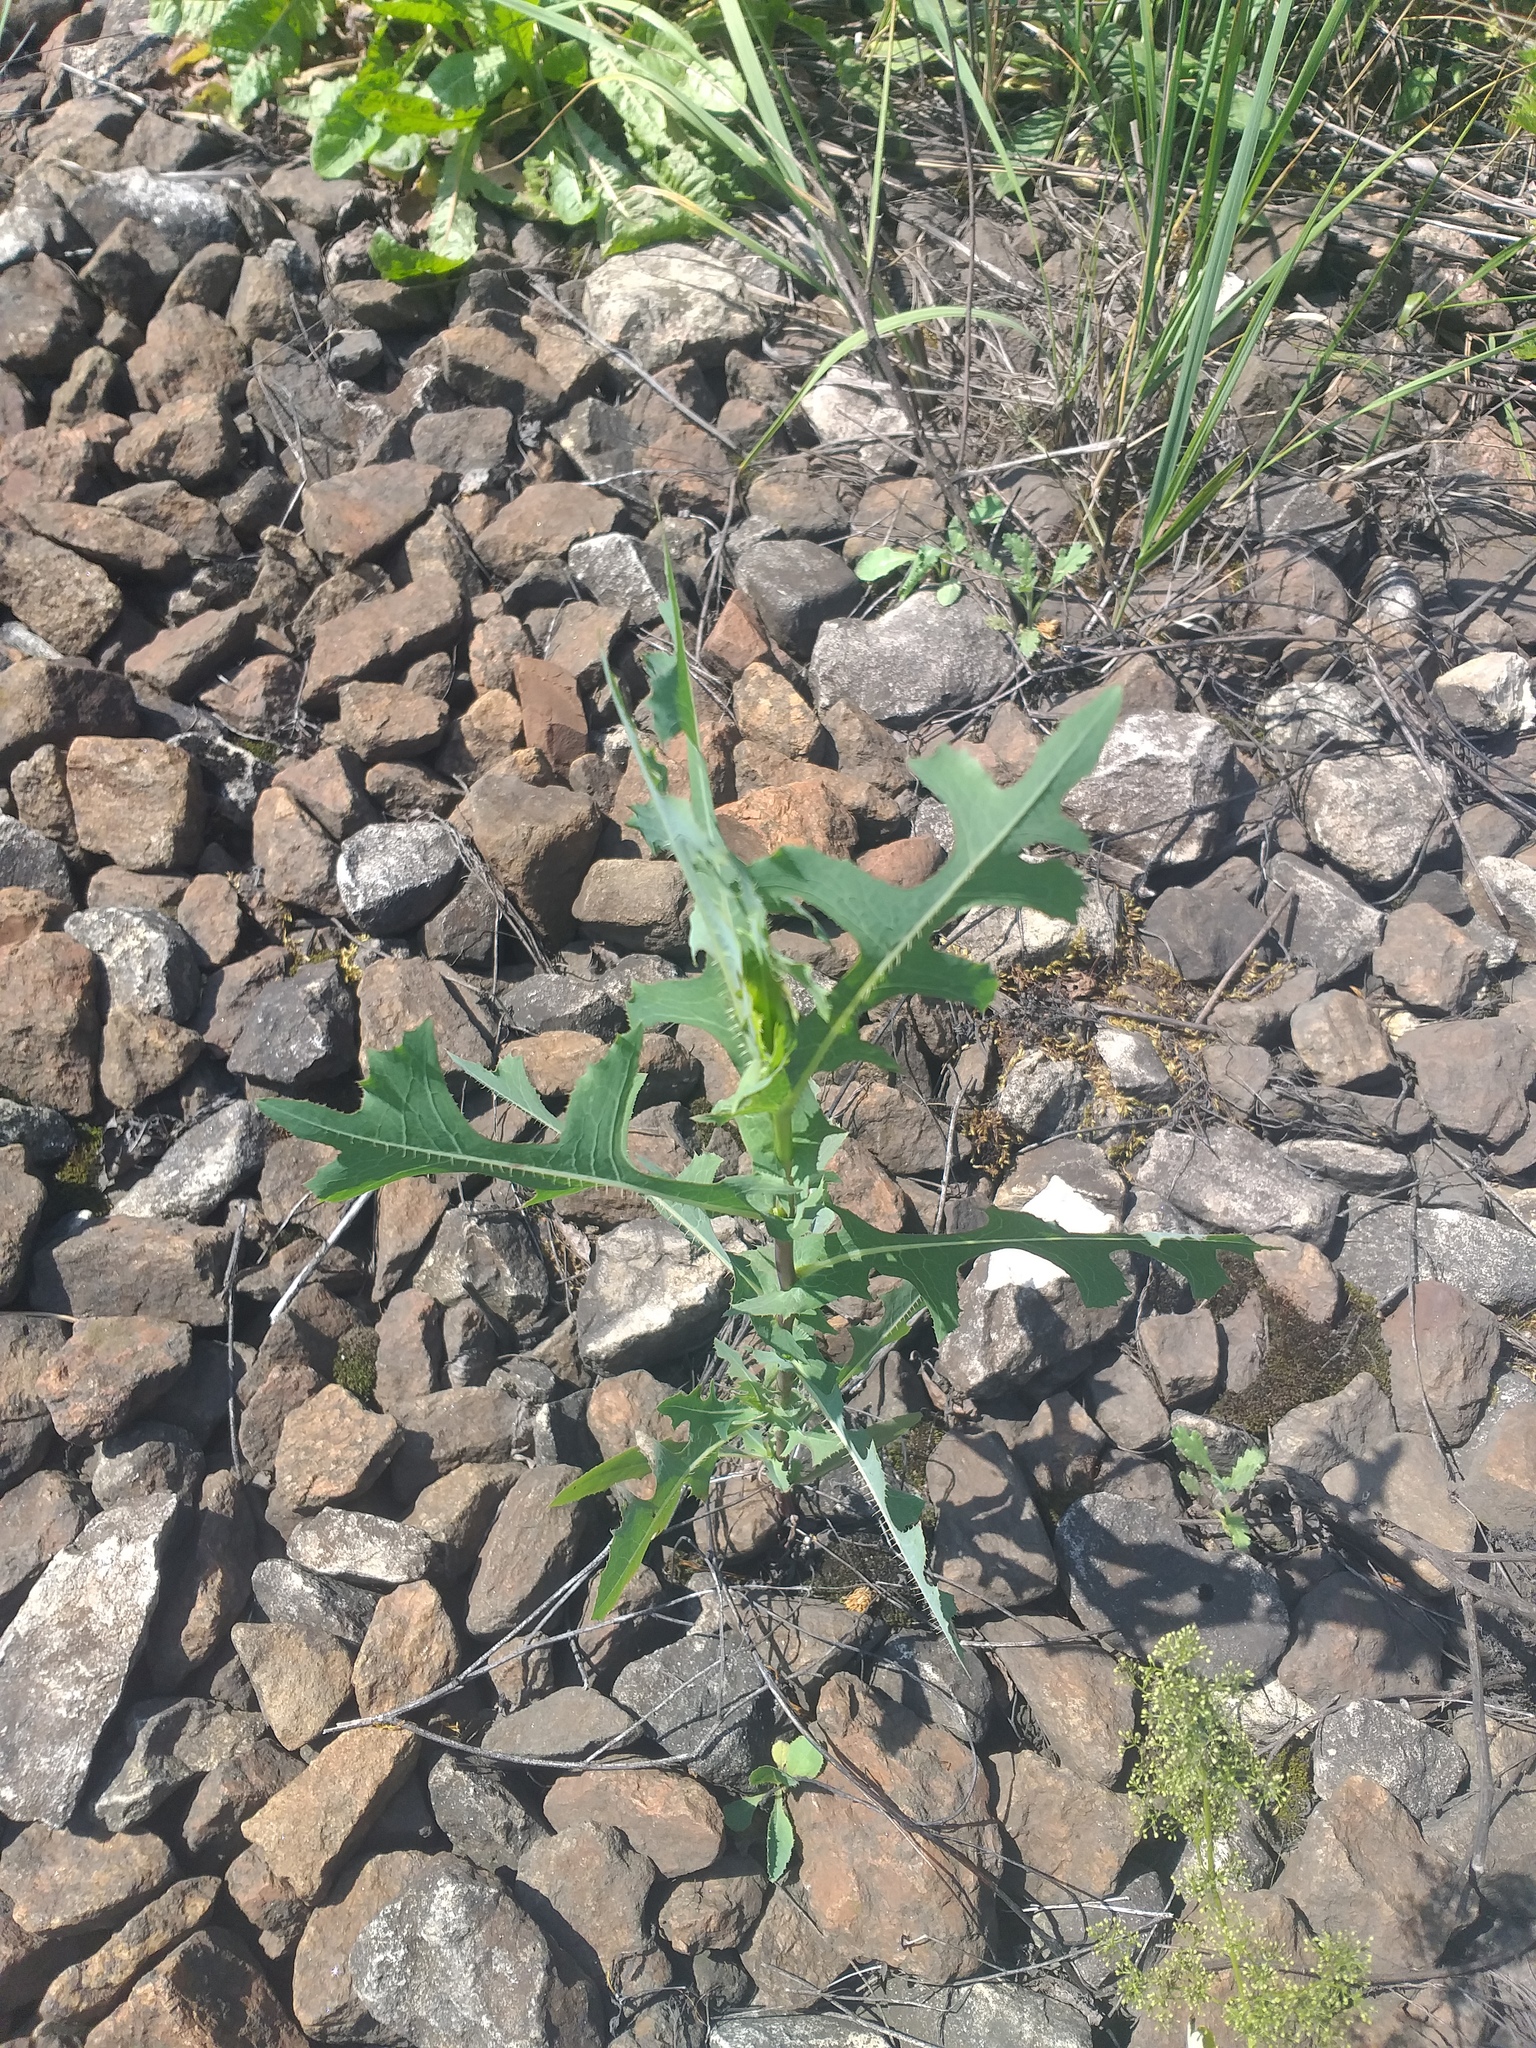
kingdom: Plantae
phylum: Tracheophyta
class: Magnoliopsida
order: Asterales
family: Asteraceae
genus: Lactuca
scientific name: Lactuca serriola
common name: Prickly lettuce
